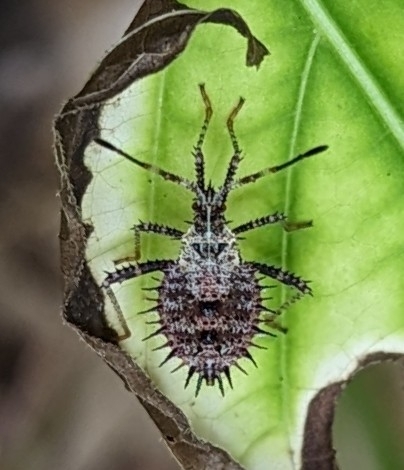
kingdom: Animalia
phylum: Arthropoda
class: Insecta
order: Hemiptera
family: Coreidae
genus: Euthochtha
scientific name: Euthochtha galeator
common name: Helmeted squash bug
